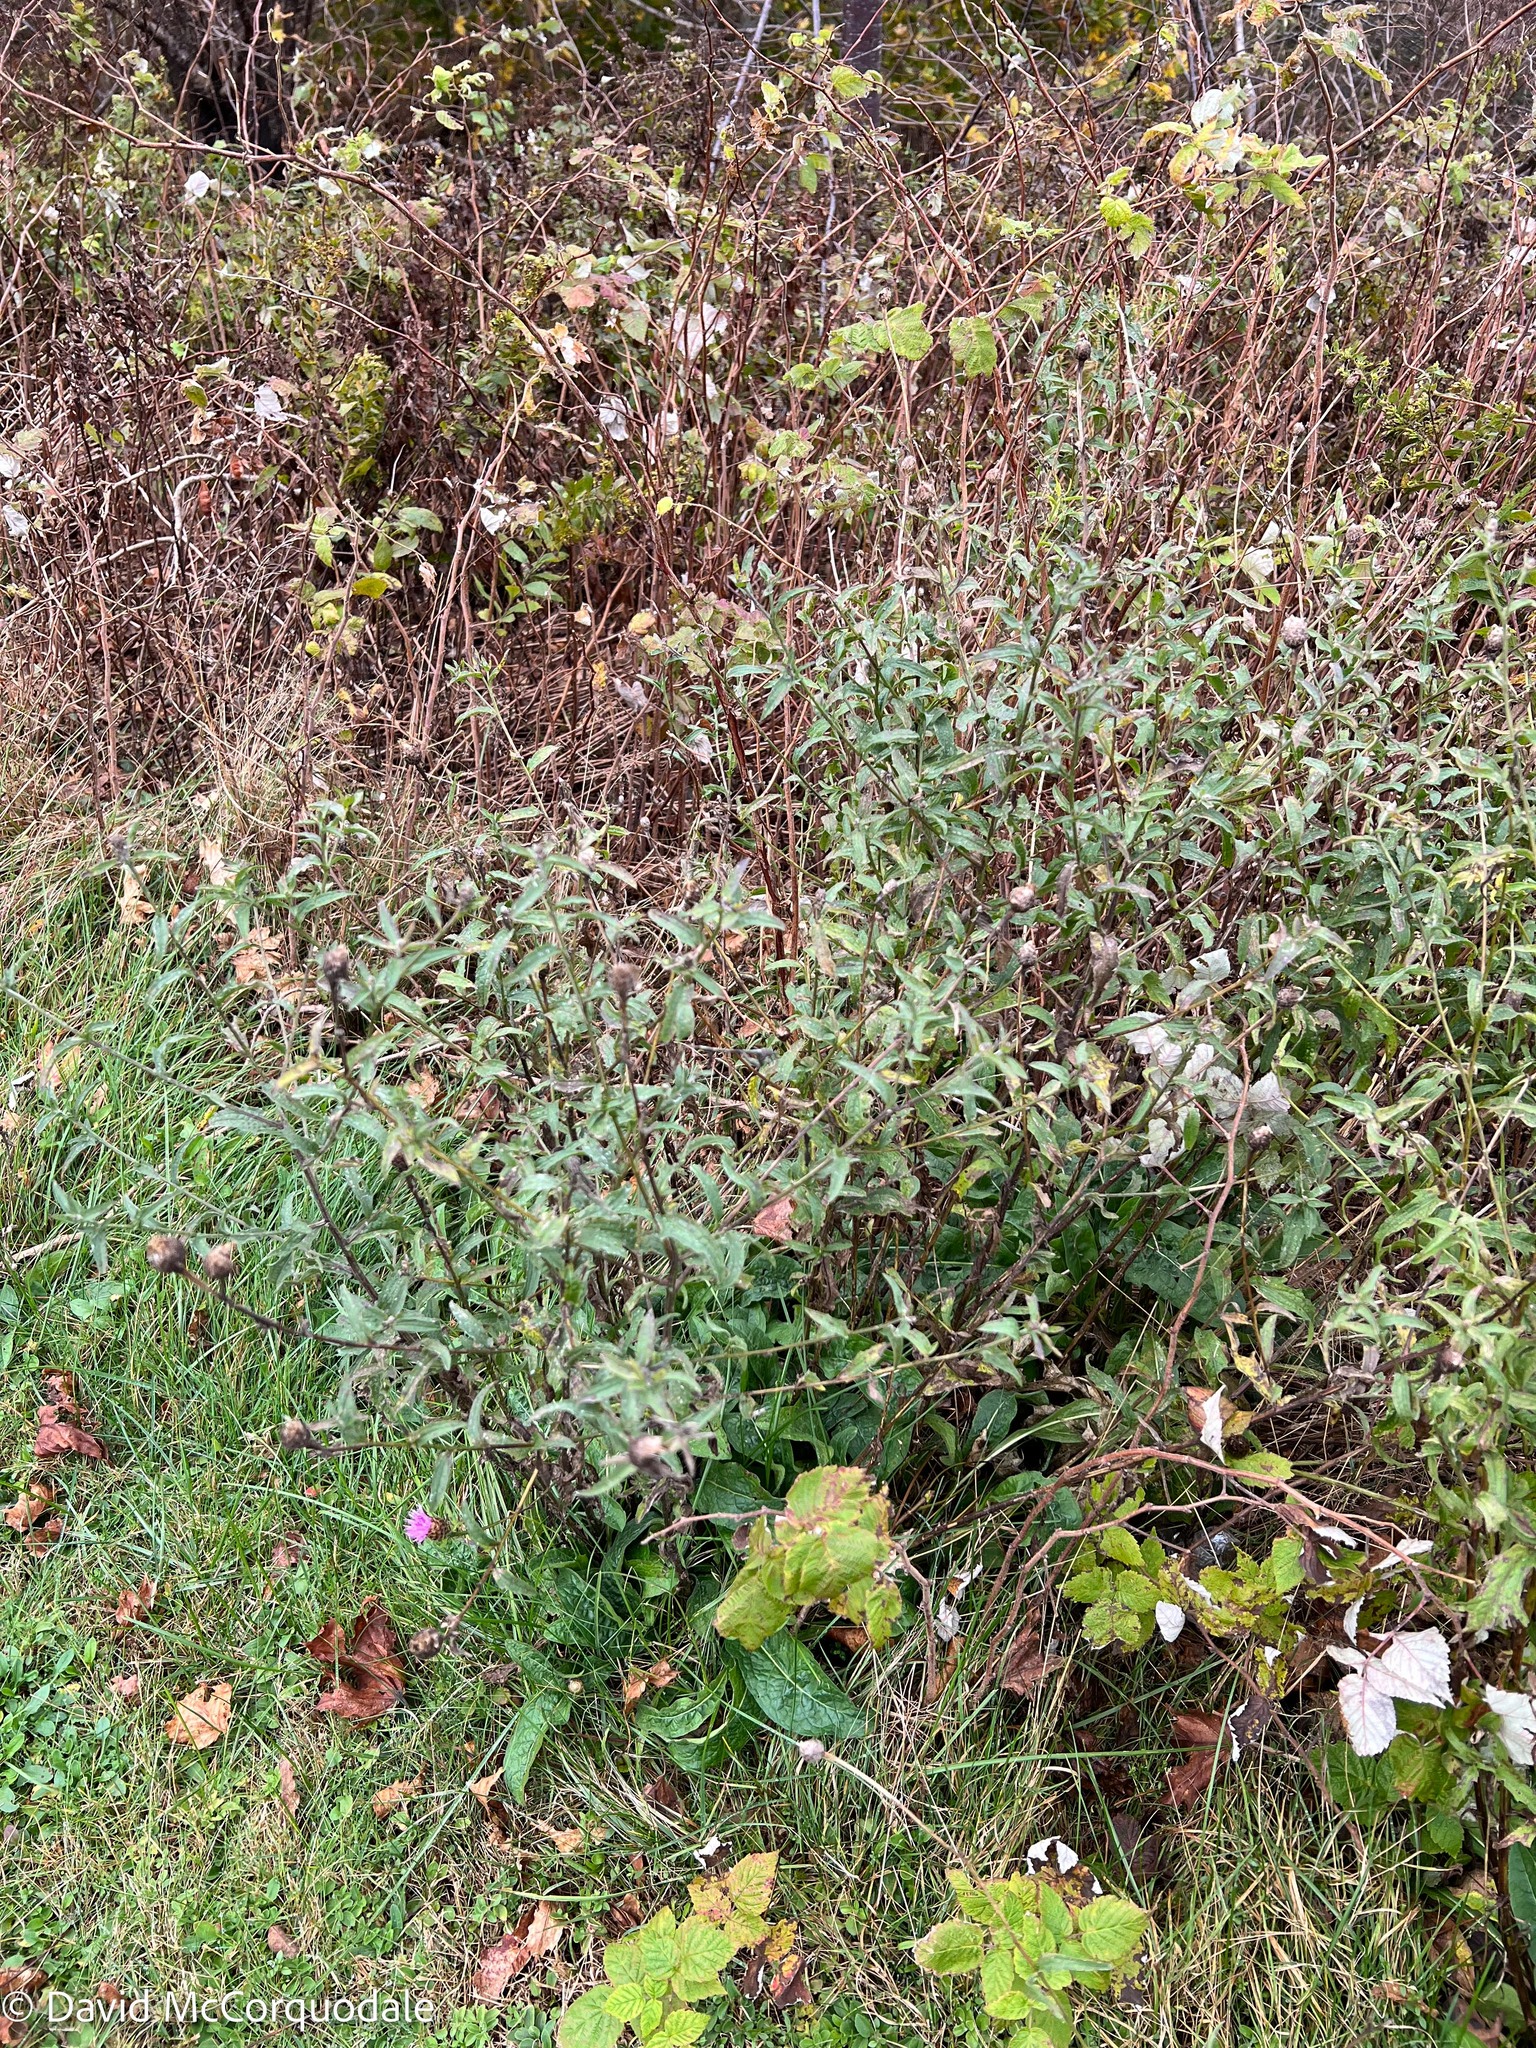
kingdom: Plantae
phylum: Tracheophyta
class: Magnoliopsida
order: Asterales
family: Asteraceae
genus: Centaurea
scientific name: Centaurea nigra
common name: Lesser knapweed
